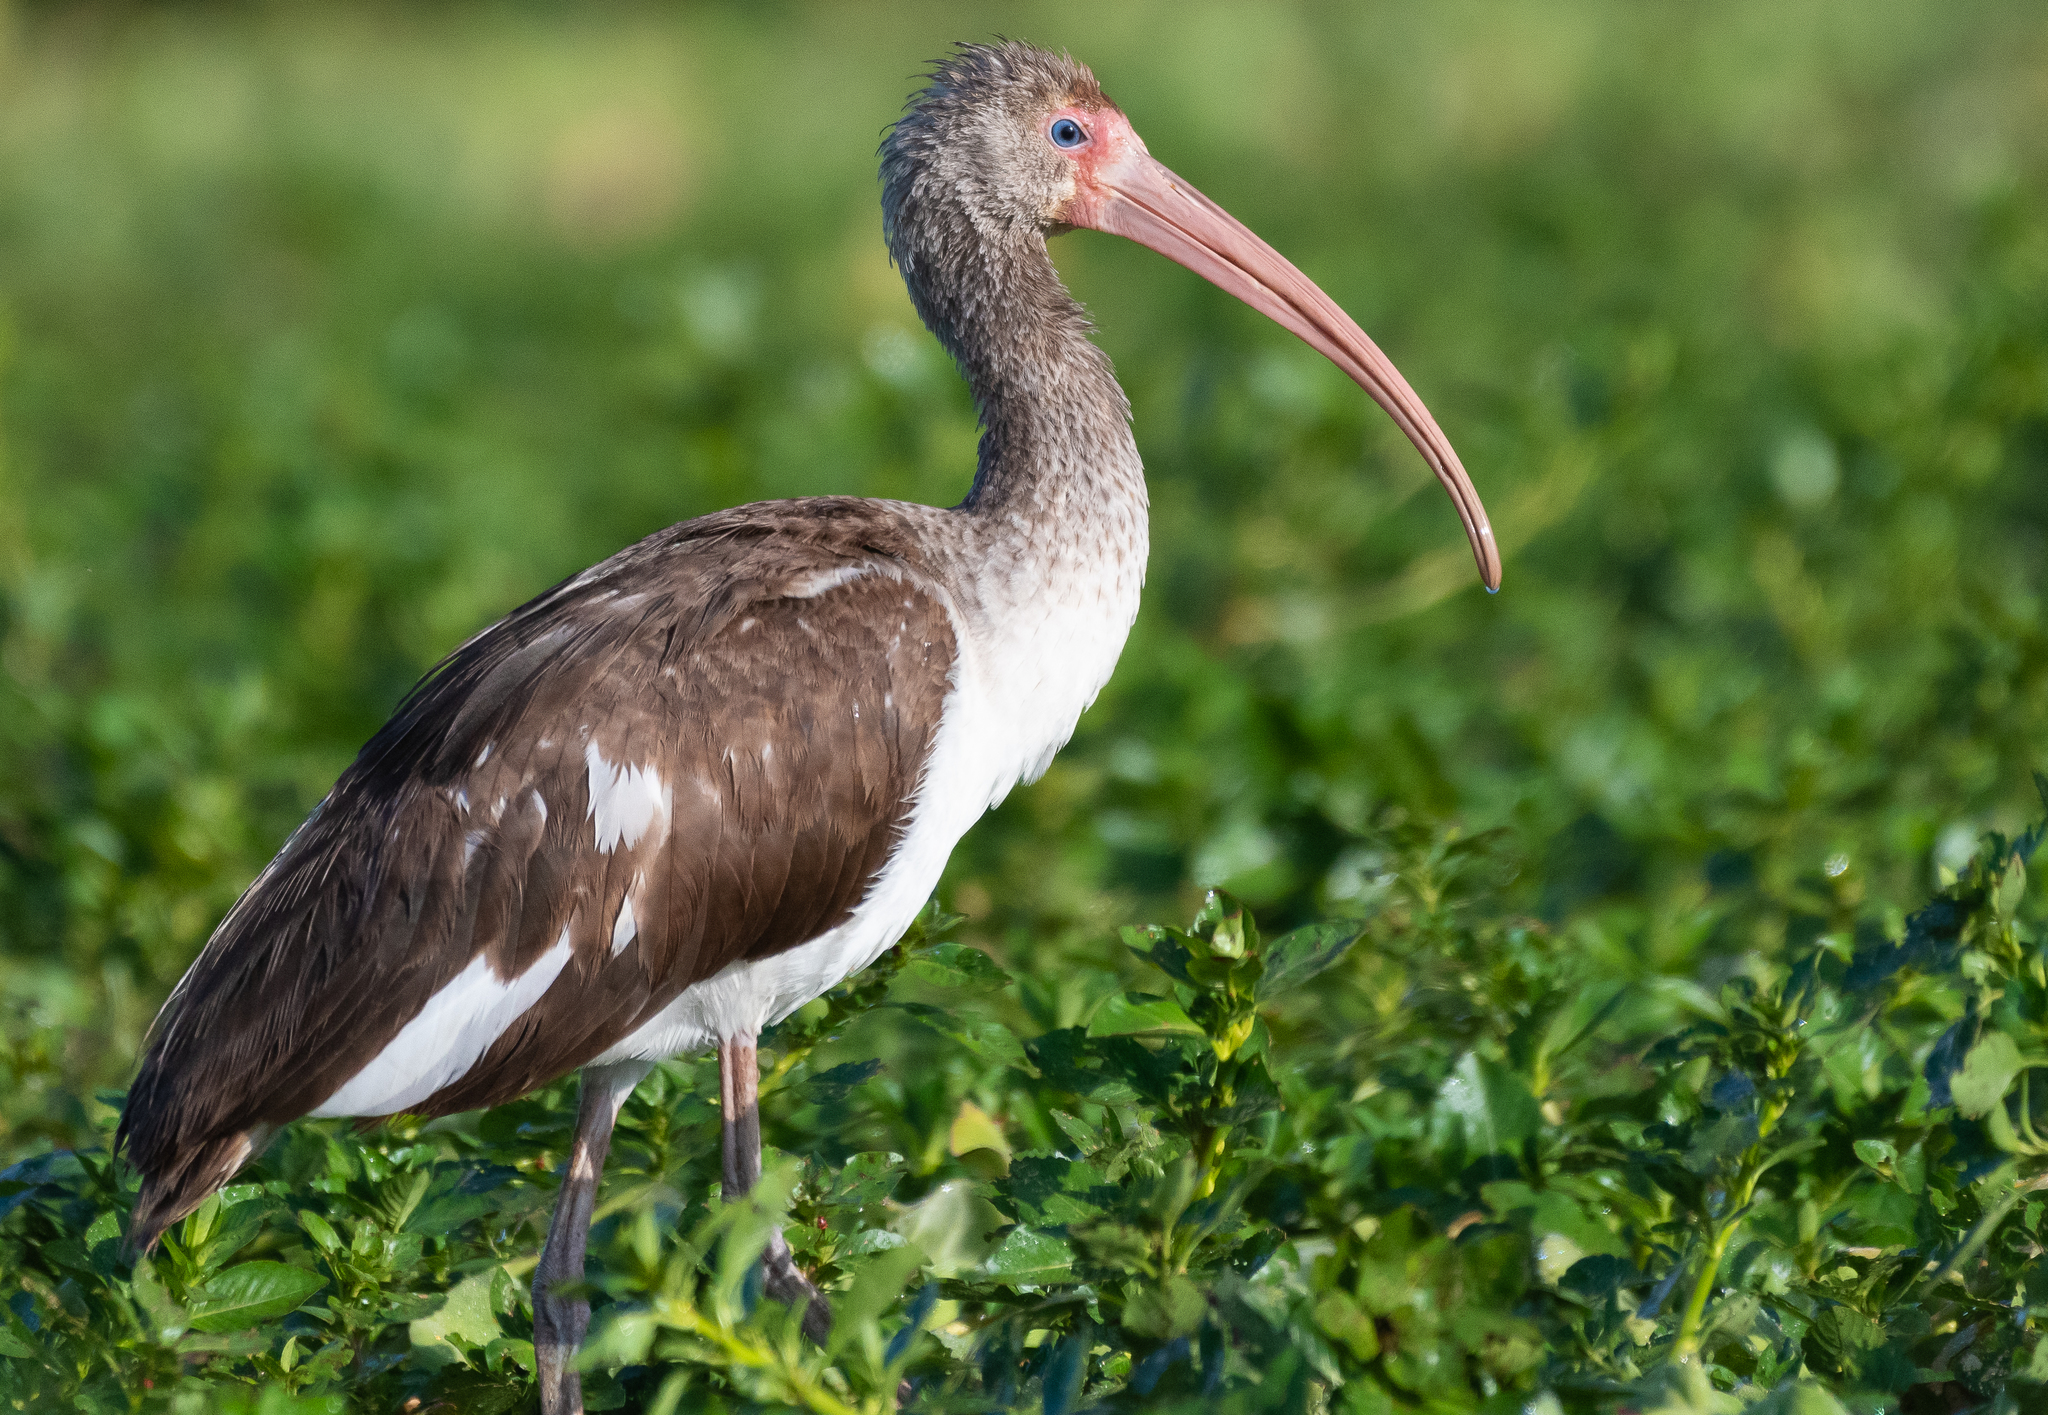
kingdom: Animalia
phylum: Chordata
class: Aves
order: Pelecaniformes
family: Threskiornithidae
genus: Eudocimus
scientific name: Eudocimus albus
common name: White ibis
